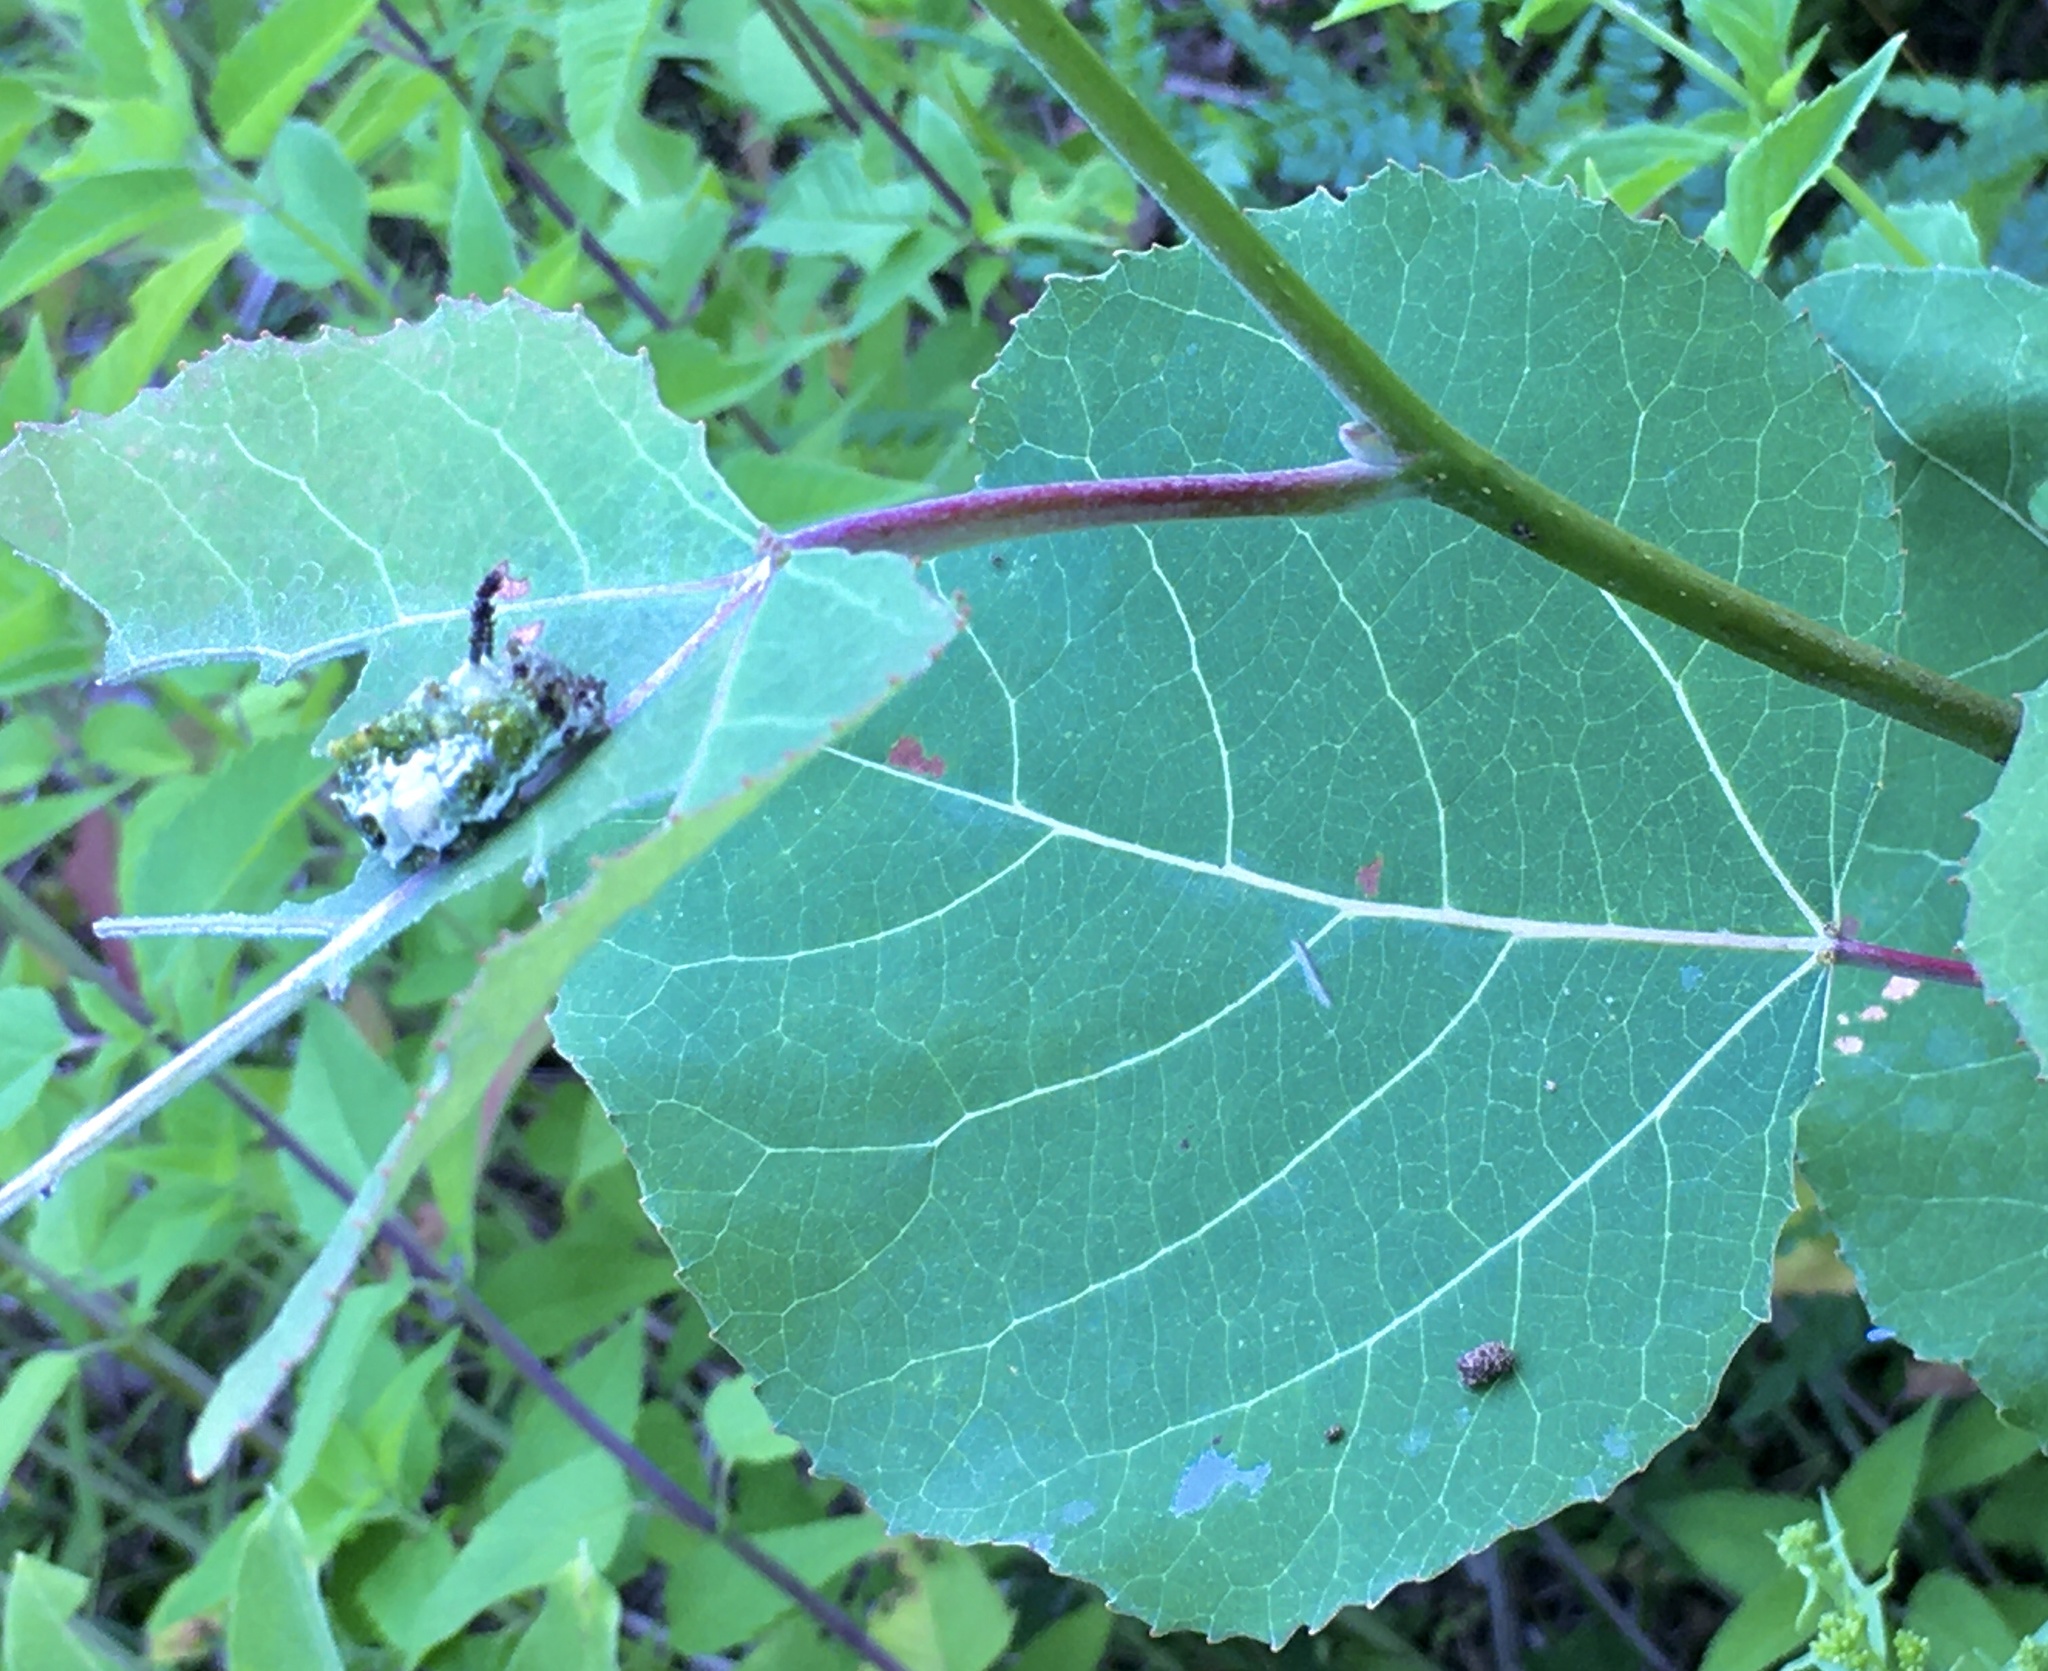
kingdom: Animalia
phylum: Arthropoda
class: Insecta
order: Lepidoptera
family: Nymphalidae
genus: Limenitis
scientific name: Limenitis archippus
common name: Viceroy
